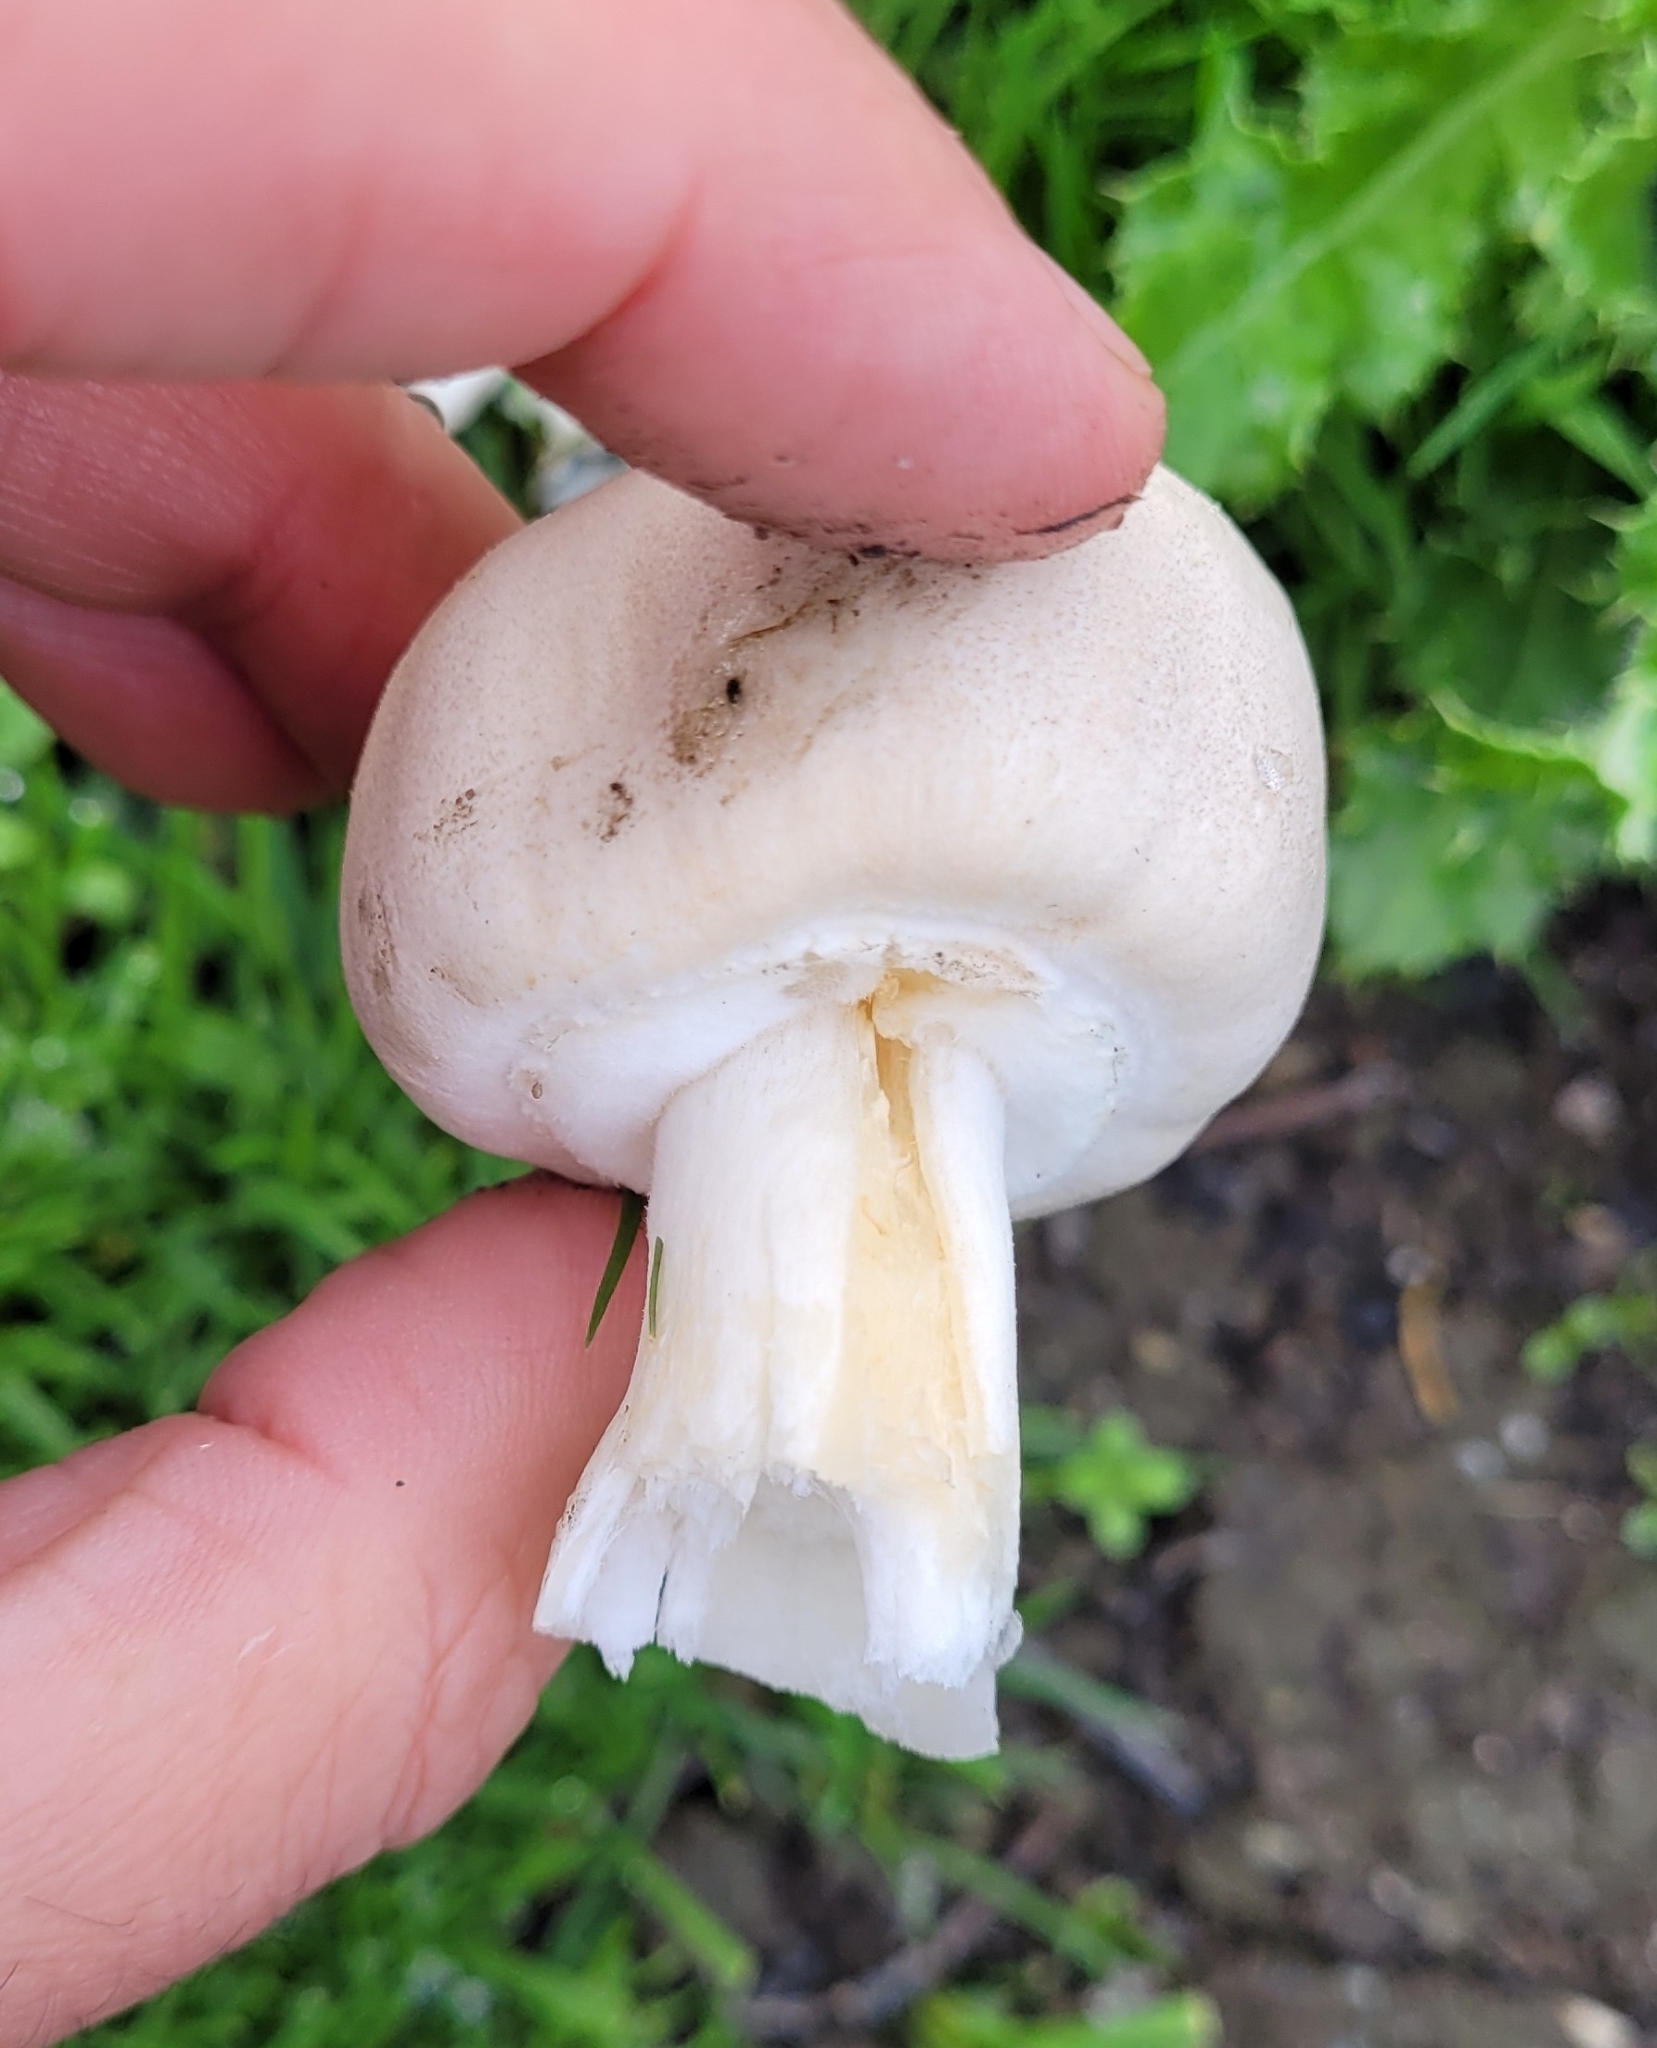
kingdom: Fungi
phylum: Basidiomycota
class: Agaricomycetes
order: Agaricales
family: Agaricaceae
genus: Leucoagaricus
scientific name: Leucoagaricus leucothites
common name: White dapperling
